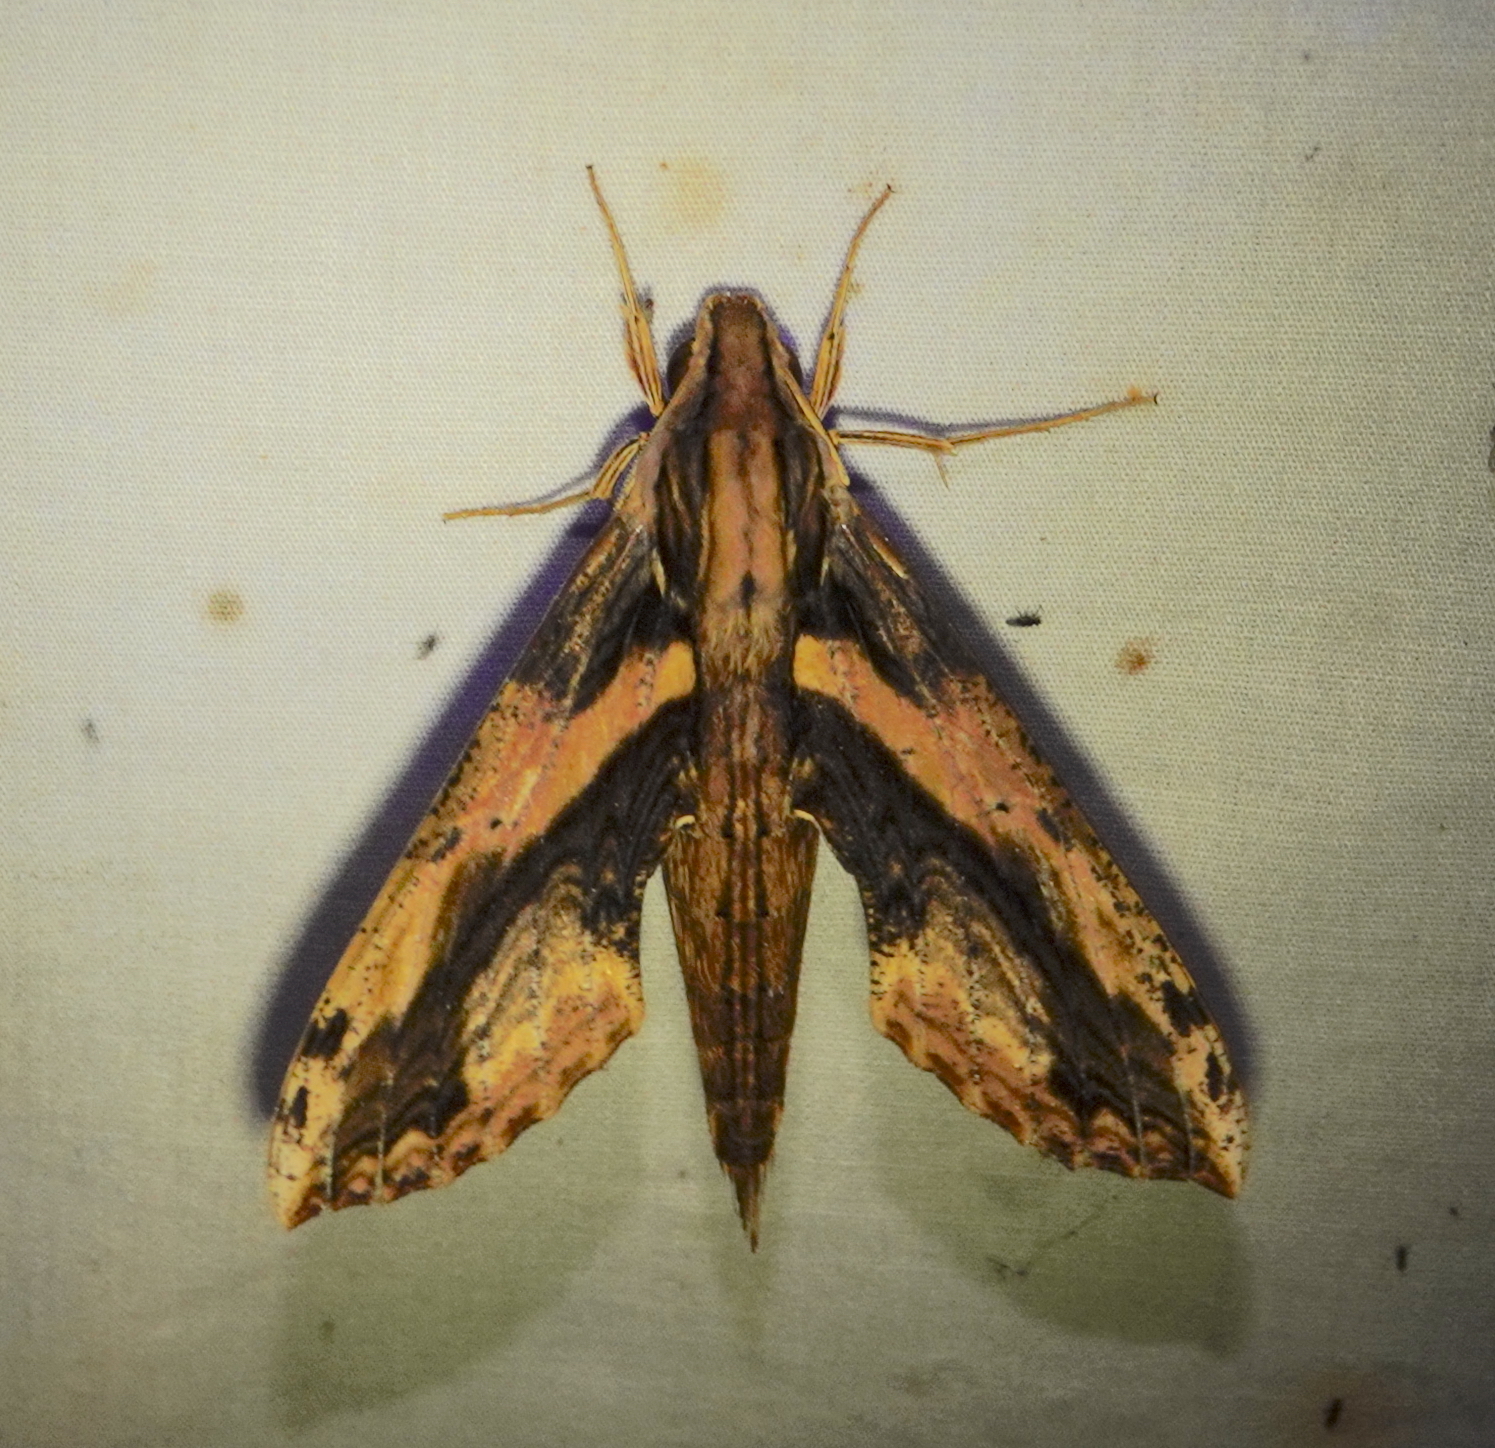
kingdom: Animalia
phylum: Arthropoda
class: Insecta
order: Lepidoptera
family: Sphingidae
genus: Xylophanes
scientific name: Xylophanes ceratomioides
